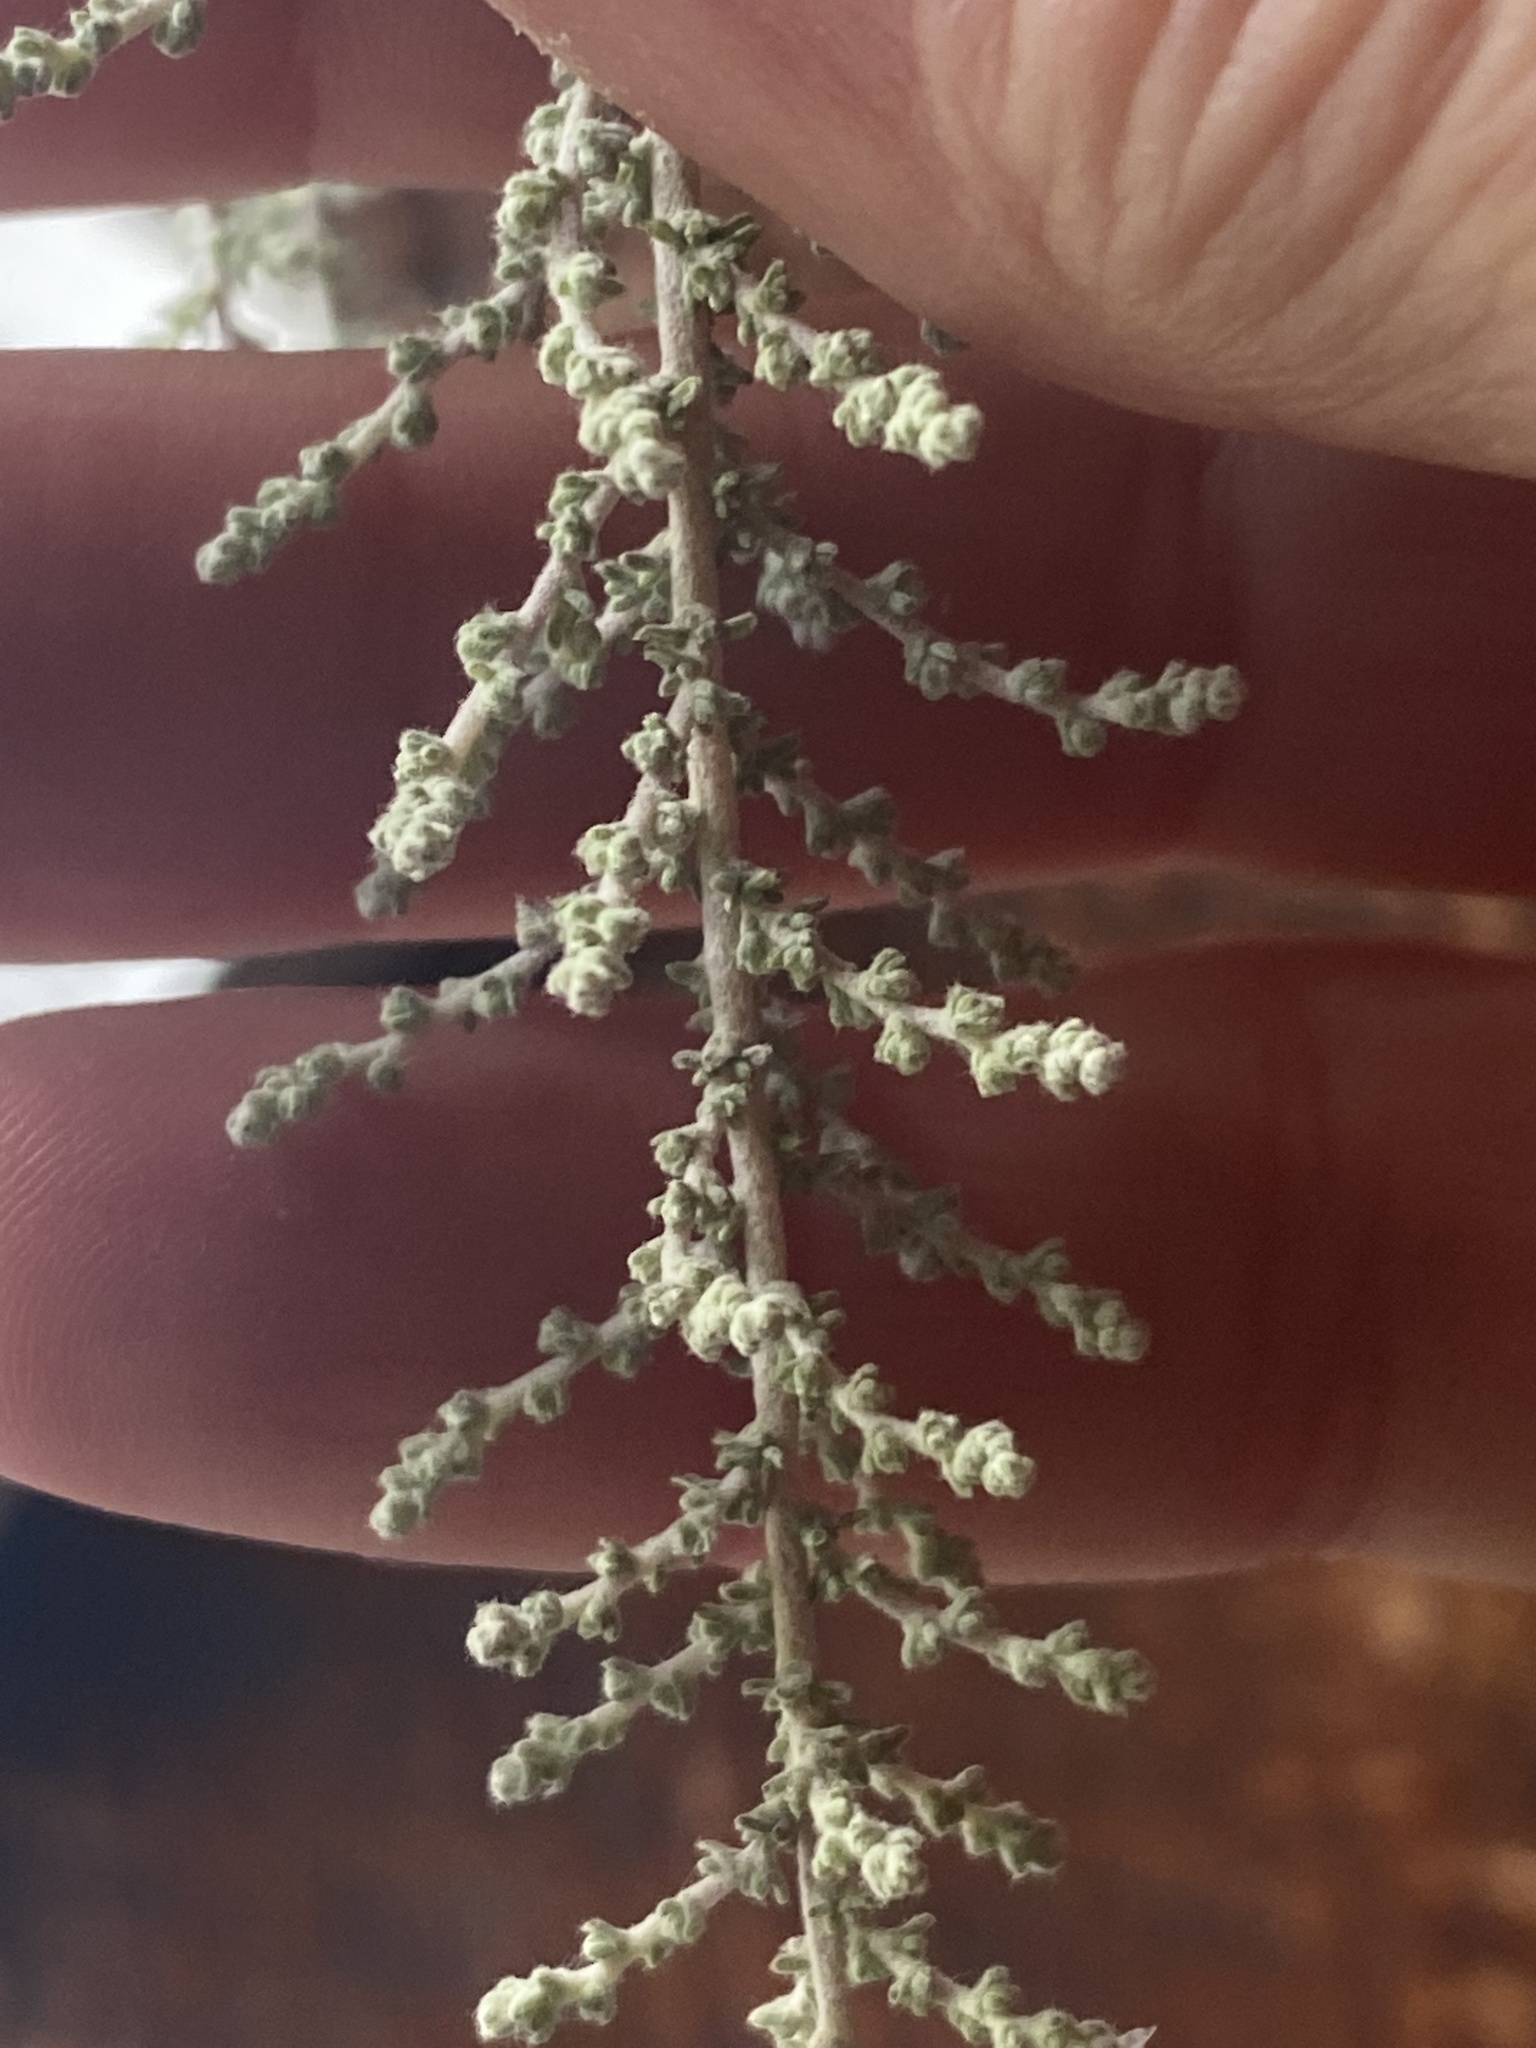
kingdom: Plantae
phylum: Tracheophyta
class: Magnoliopsida
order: Asterales
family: Asteraceae
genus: Seriphium
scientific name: Seriphium plumosum
